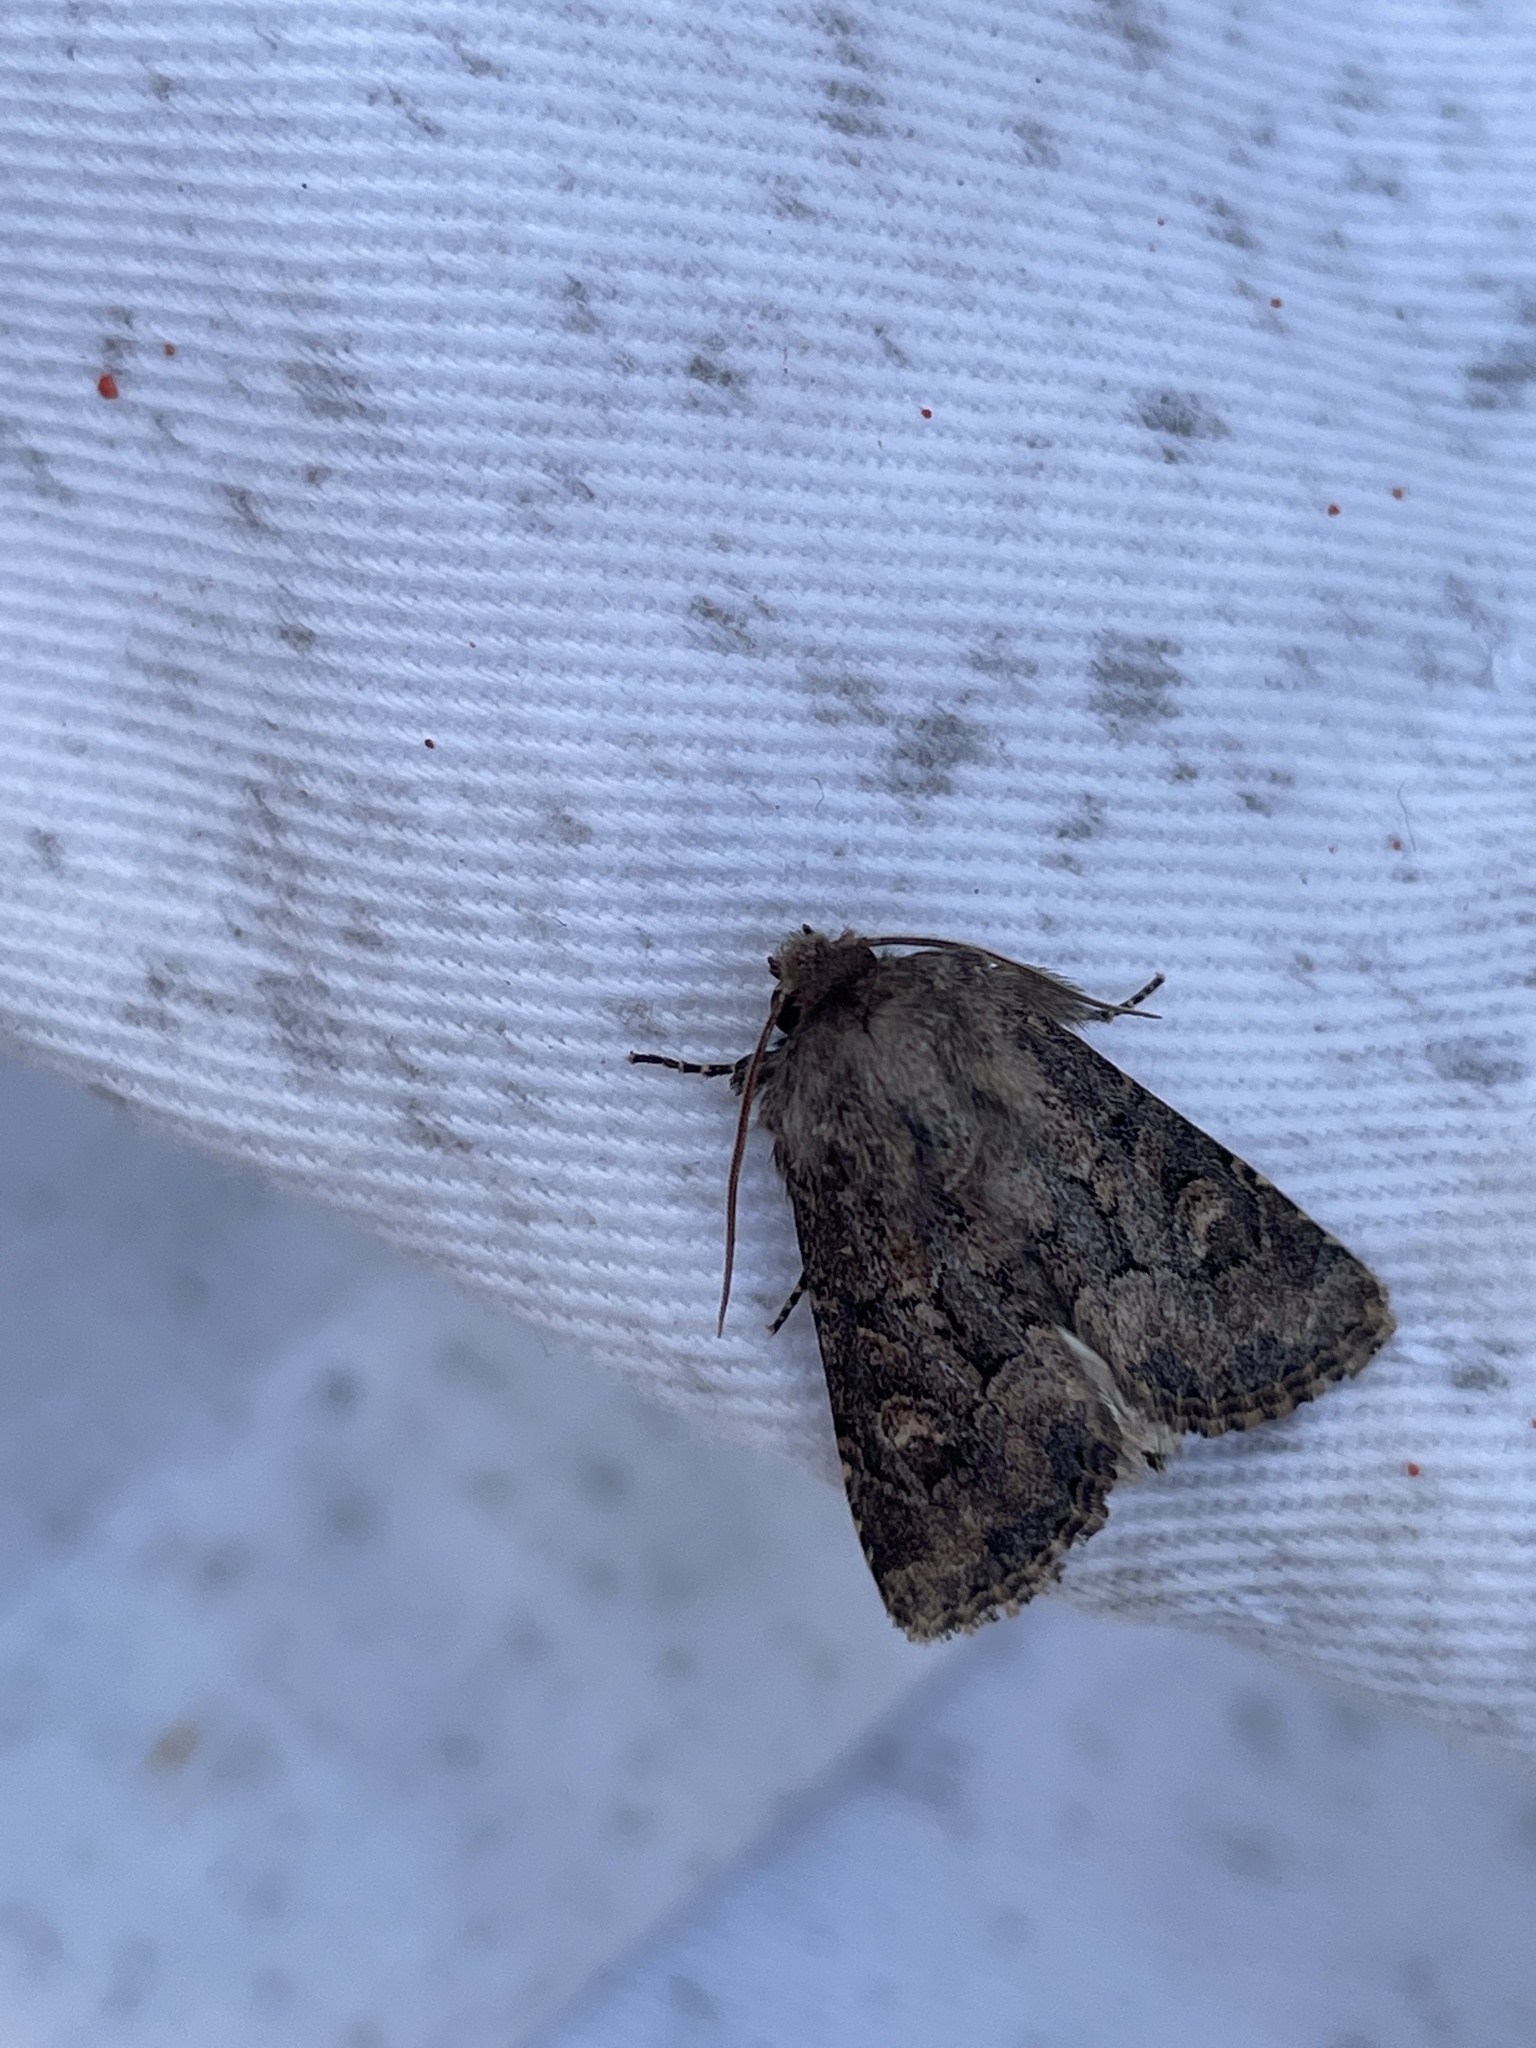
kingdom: Animalia
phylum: Arthropoda
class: Insecta
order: Lepidoptera
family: Noctuidae
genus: Luperina
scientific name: Luperina testacea
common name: Flounced rustic
